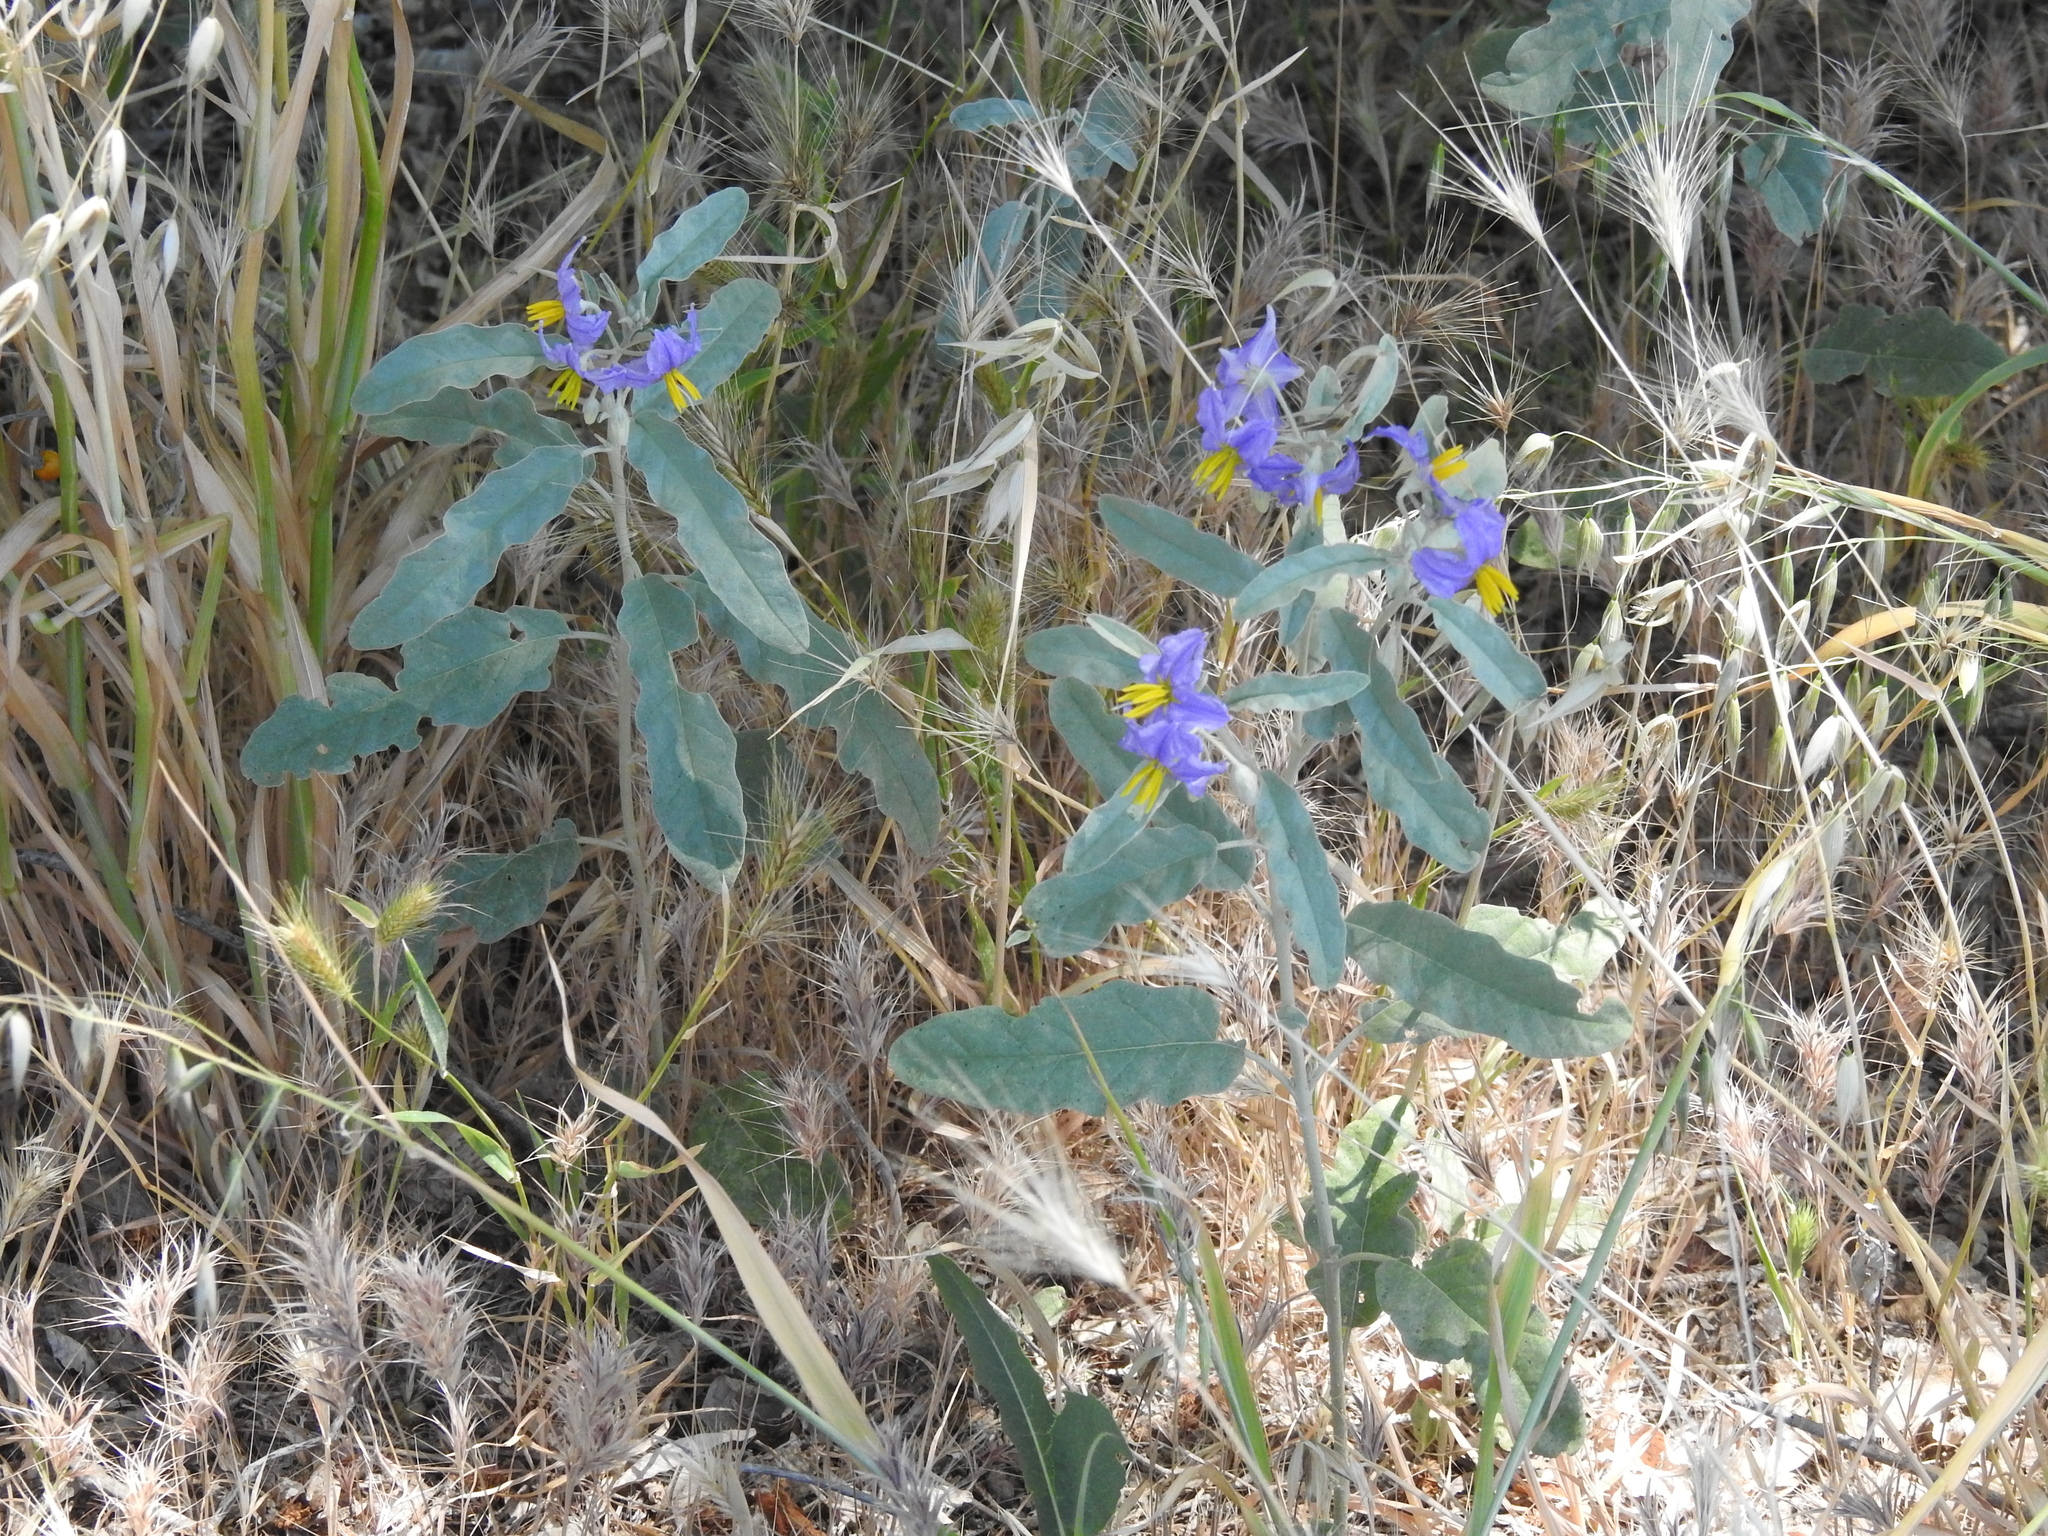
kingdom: Plantae
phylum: Tracheophyta
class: Magnoliopsida
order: Solanales
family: Solanaceae
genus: Solanum
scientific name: Solanum elaeagnifolium
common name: Silverleaf nightshade
